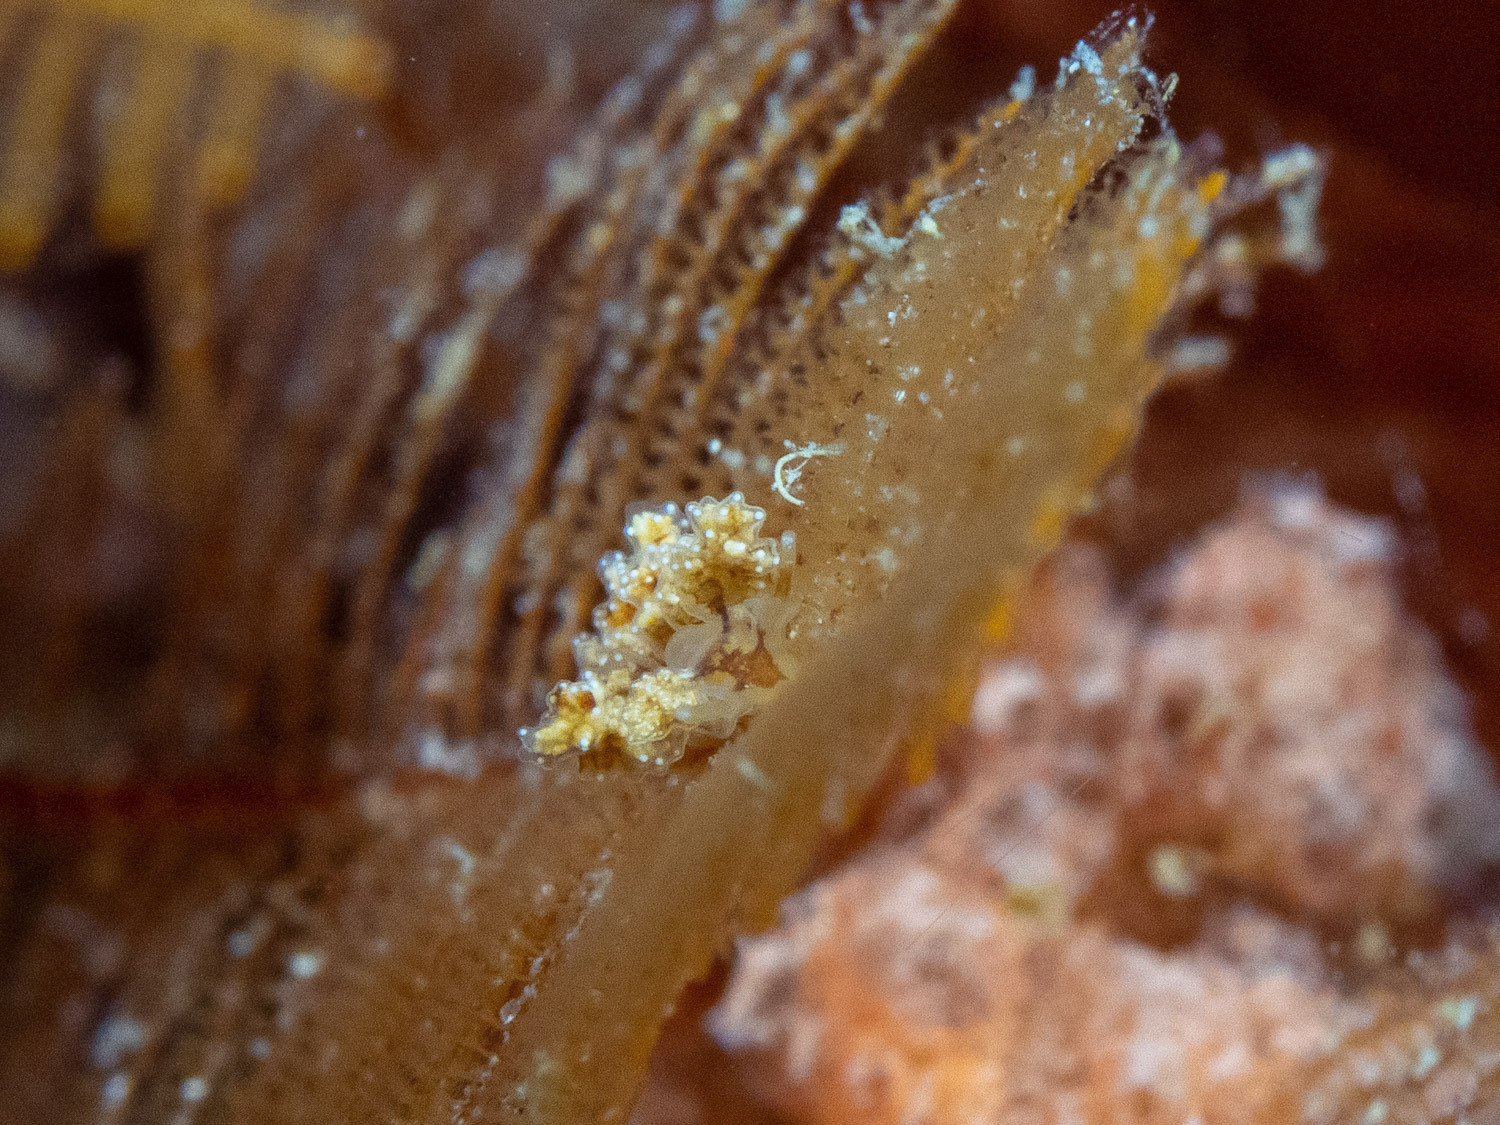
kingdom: Animalia
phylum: Mollusca
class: Gastropoda
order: Nudibranchia
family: Dotidae
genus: Doto
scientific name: Doto pita
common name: Pita doto
